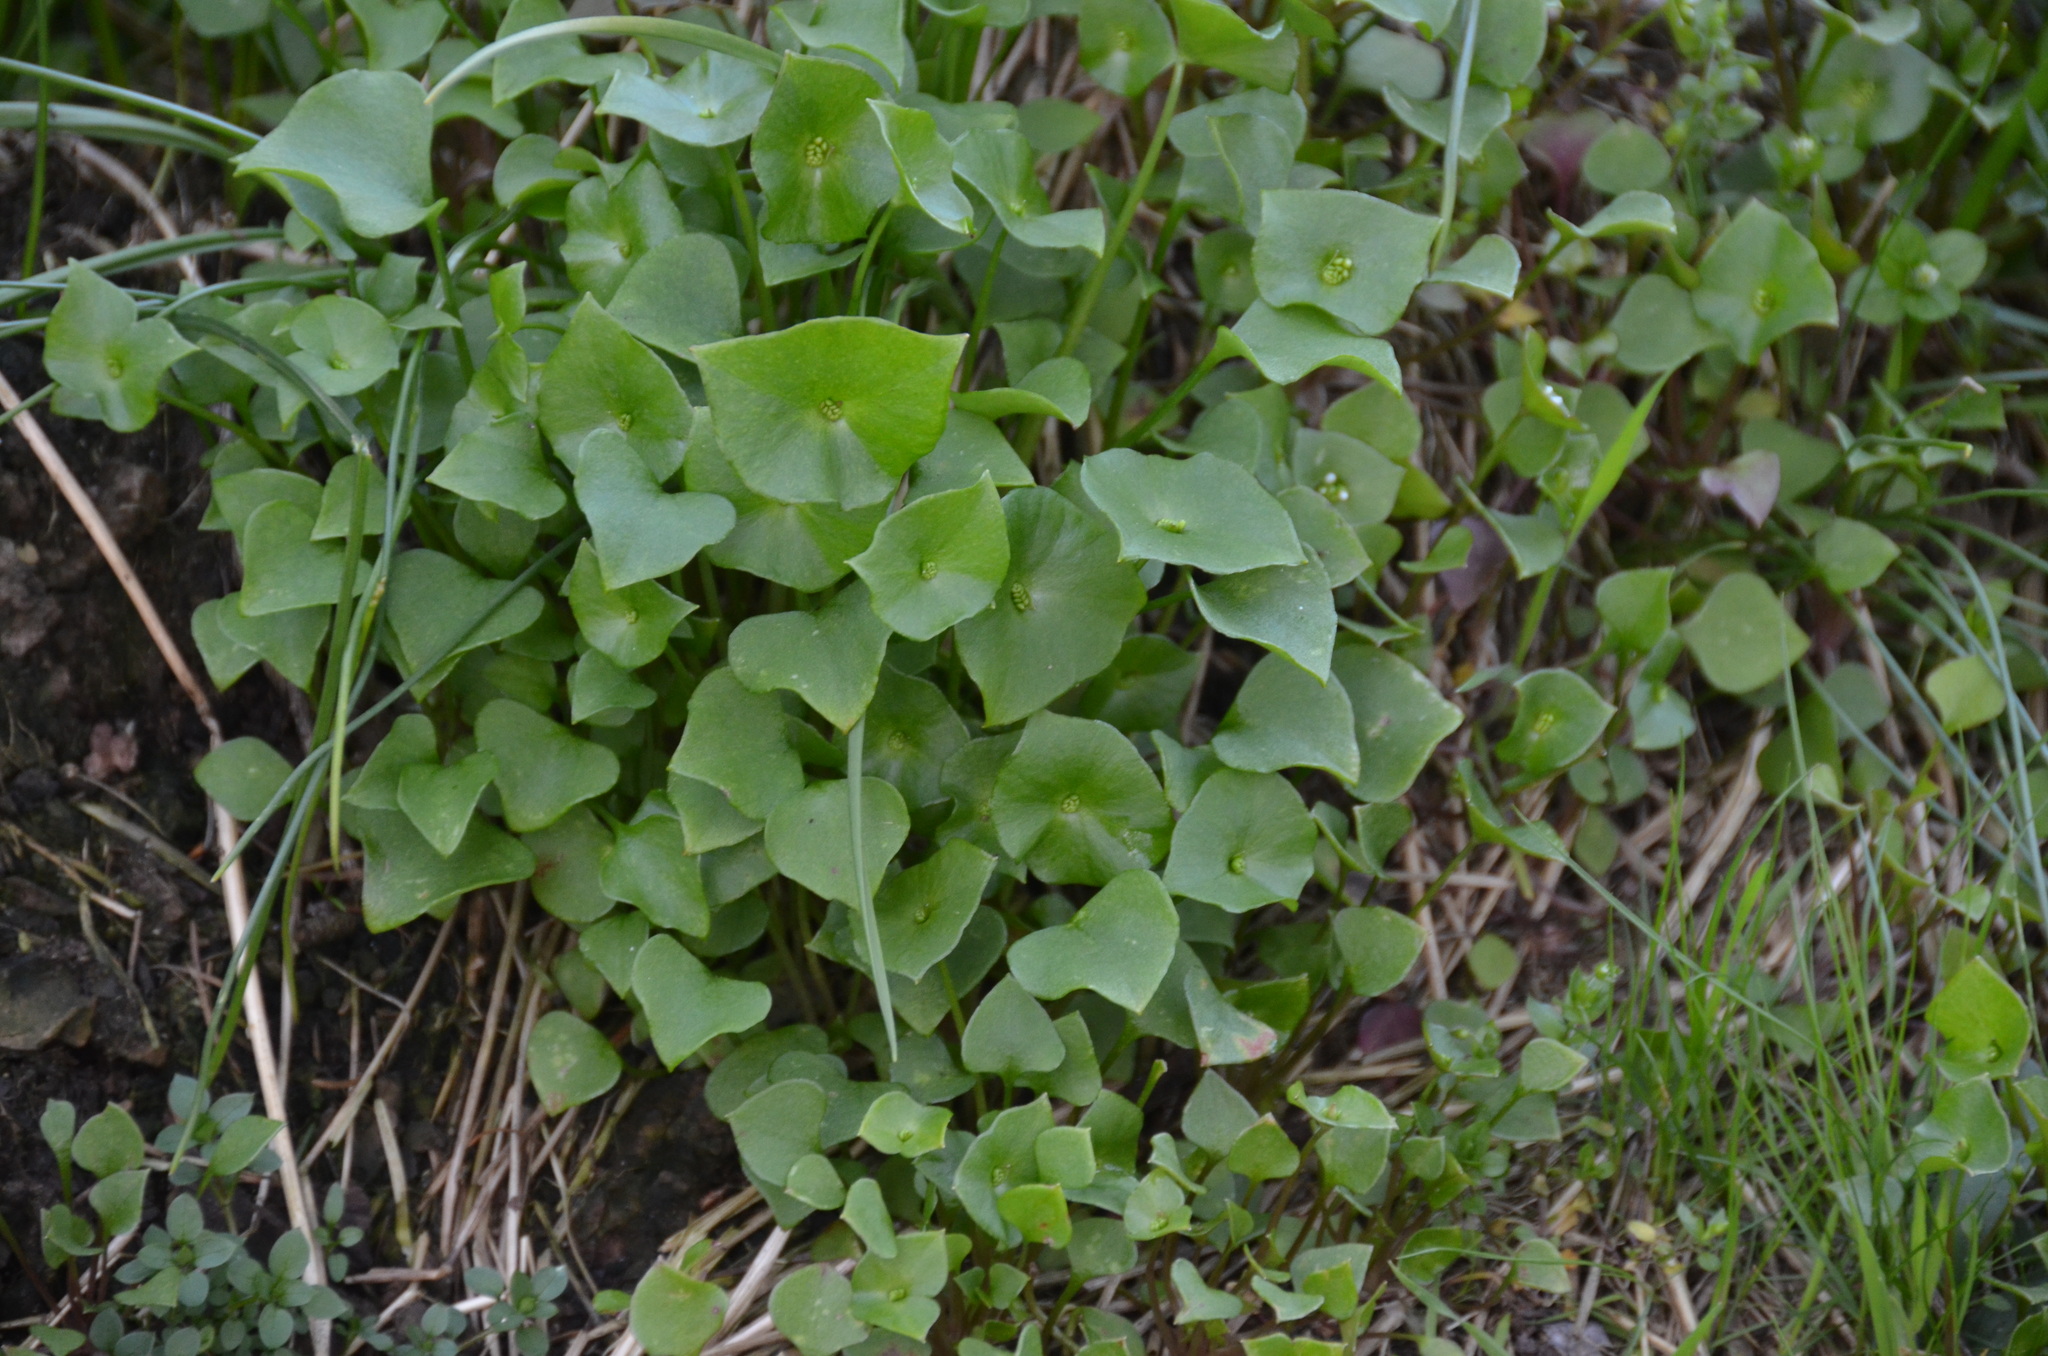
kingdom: Plantae
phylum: Tracheophyta
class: Magnoliopsida
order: Caryophyllales
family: Montiaceae
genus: Claytonia
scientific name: Claytonia perfoliata
